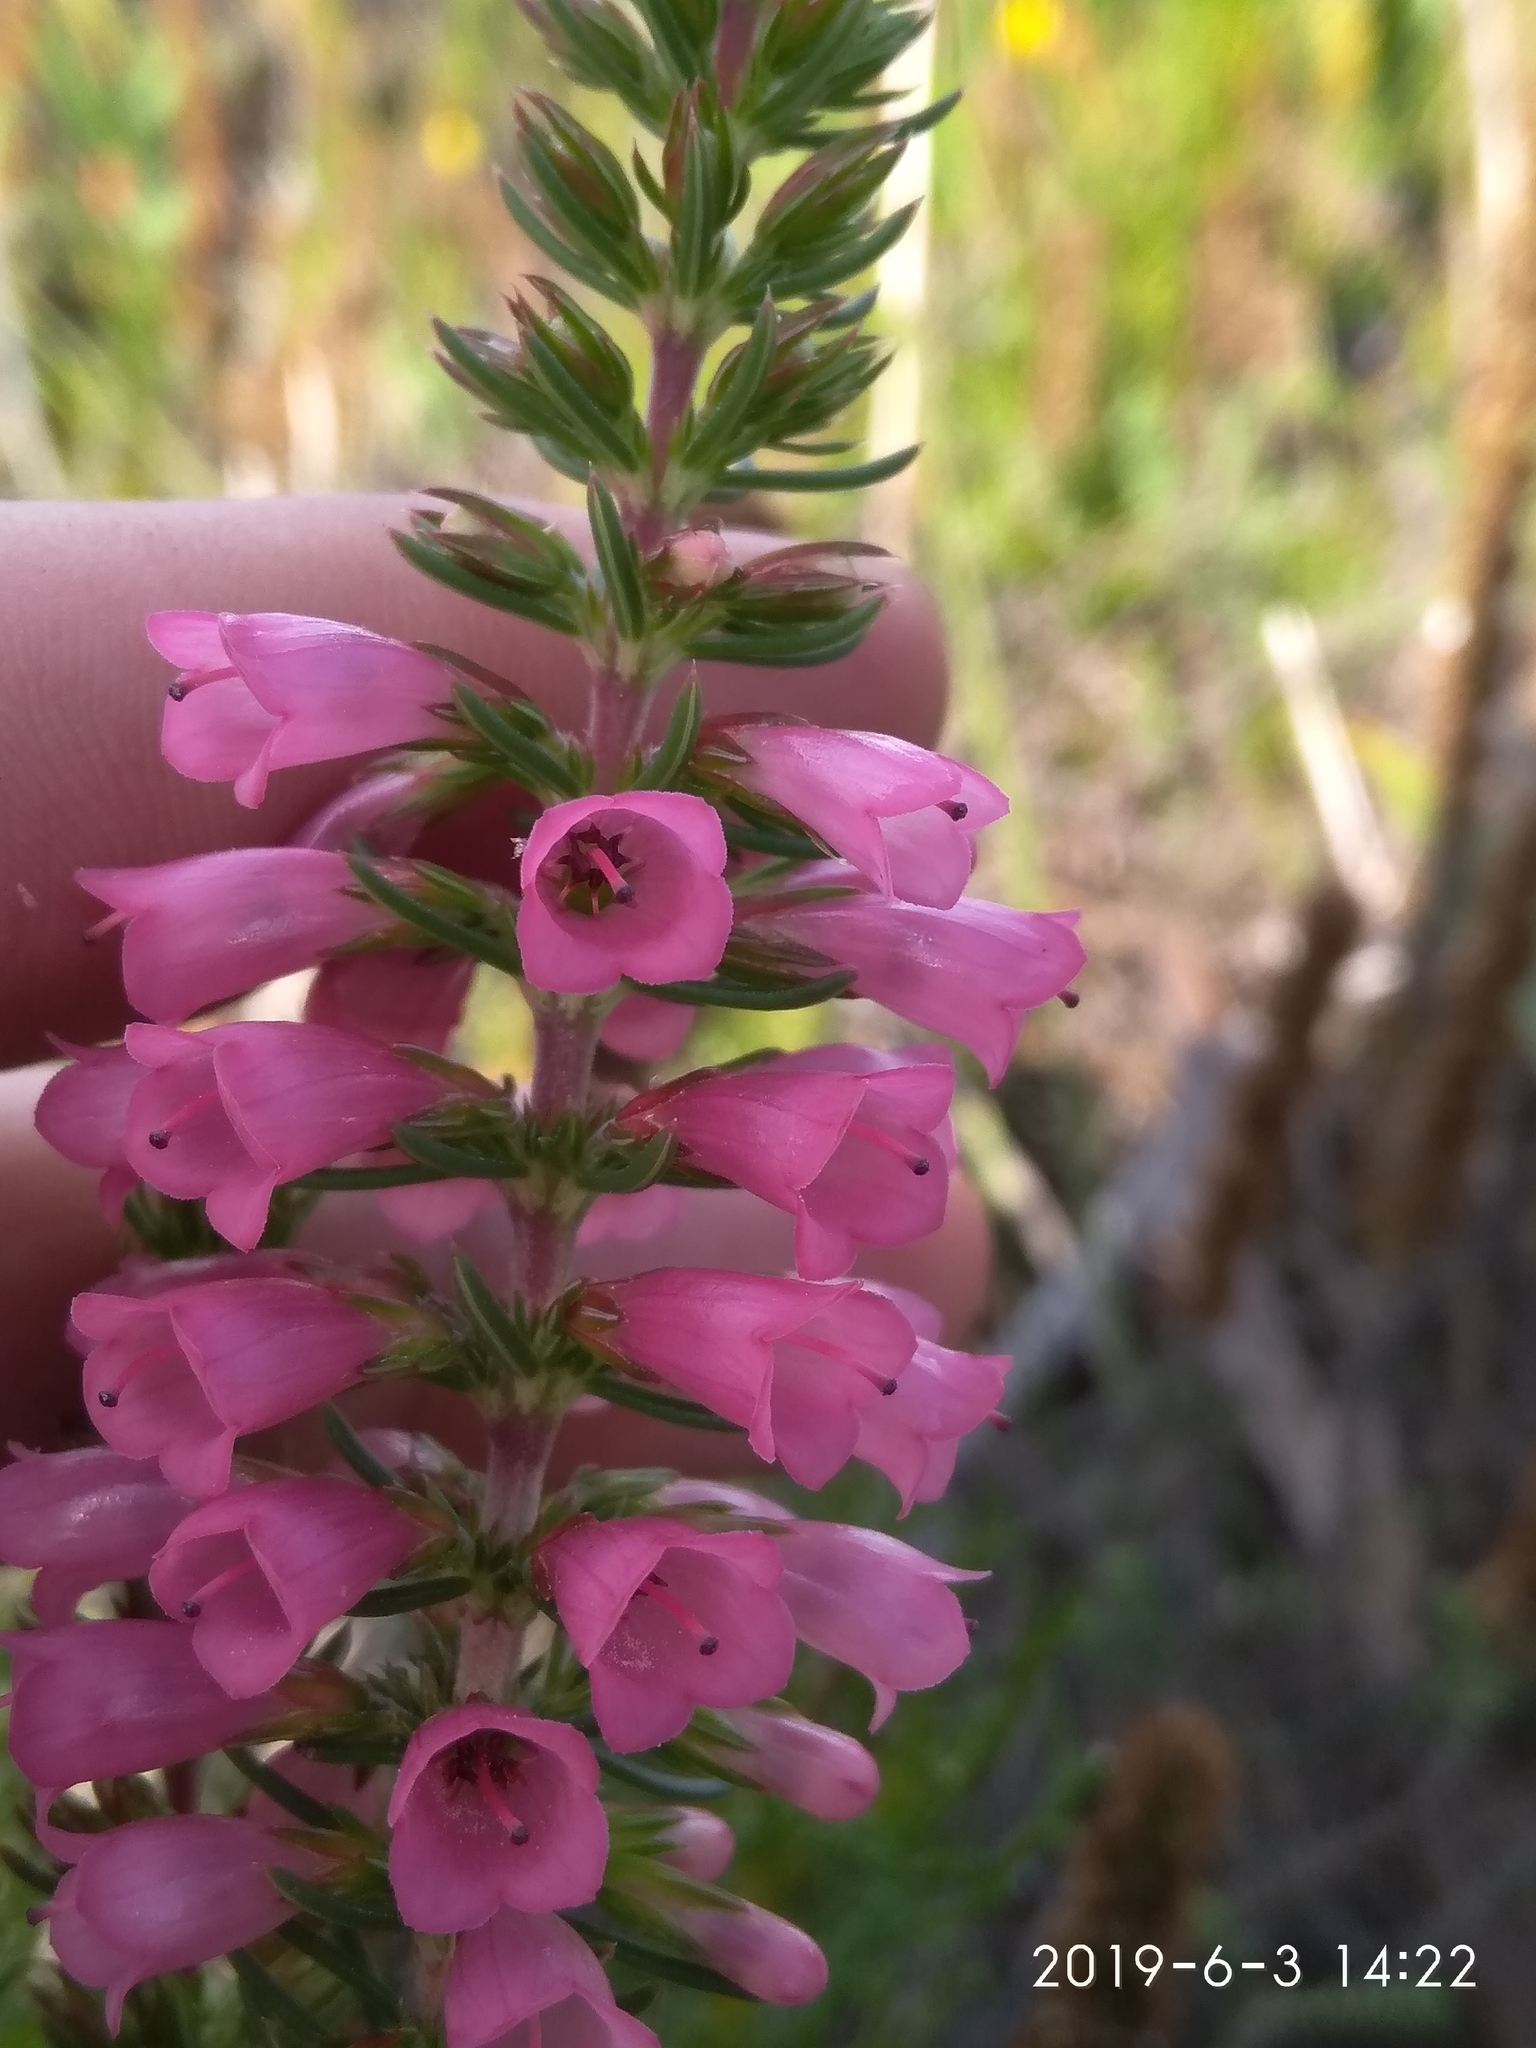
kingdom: Plantae
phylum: Tracheophyta
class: Magnoliopsida
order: Ericales
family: Ericaceae
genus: Erica
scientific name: Erica abietina
